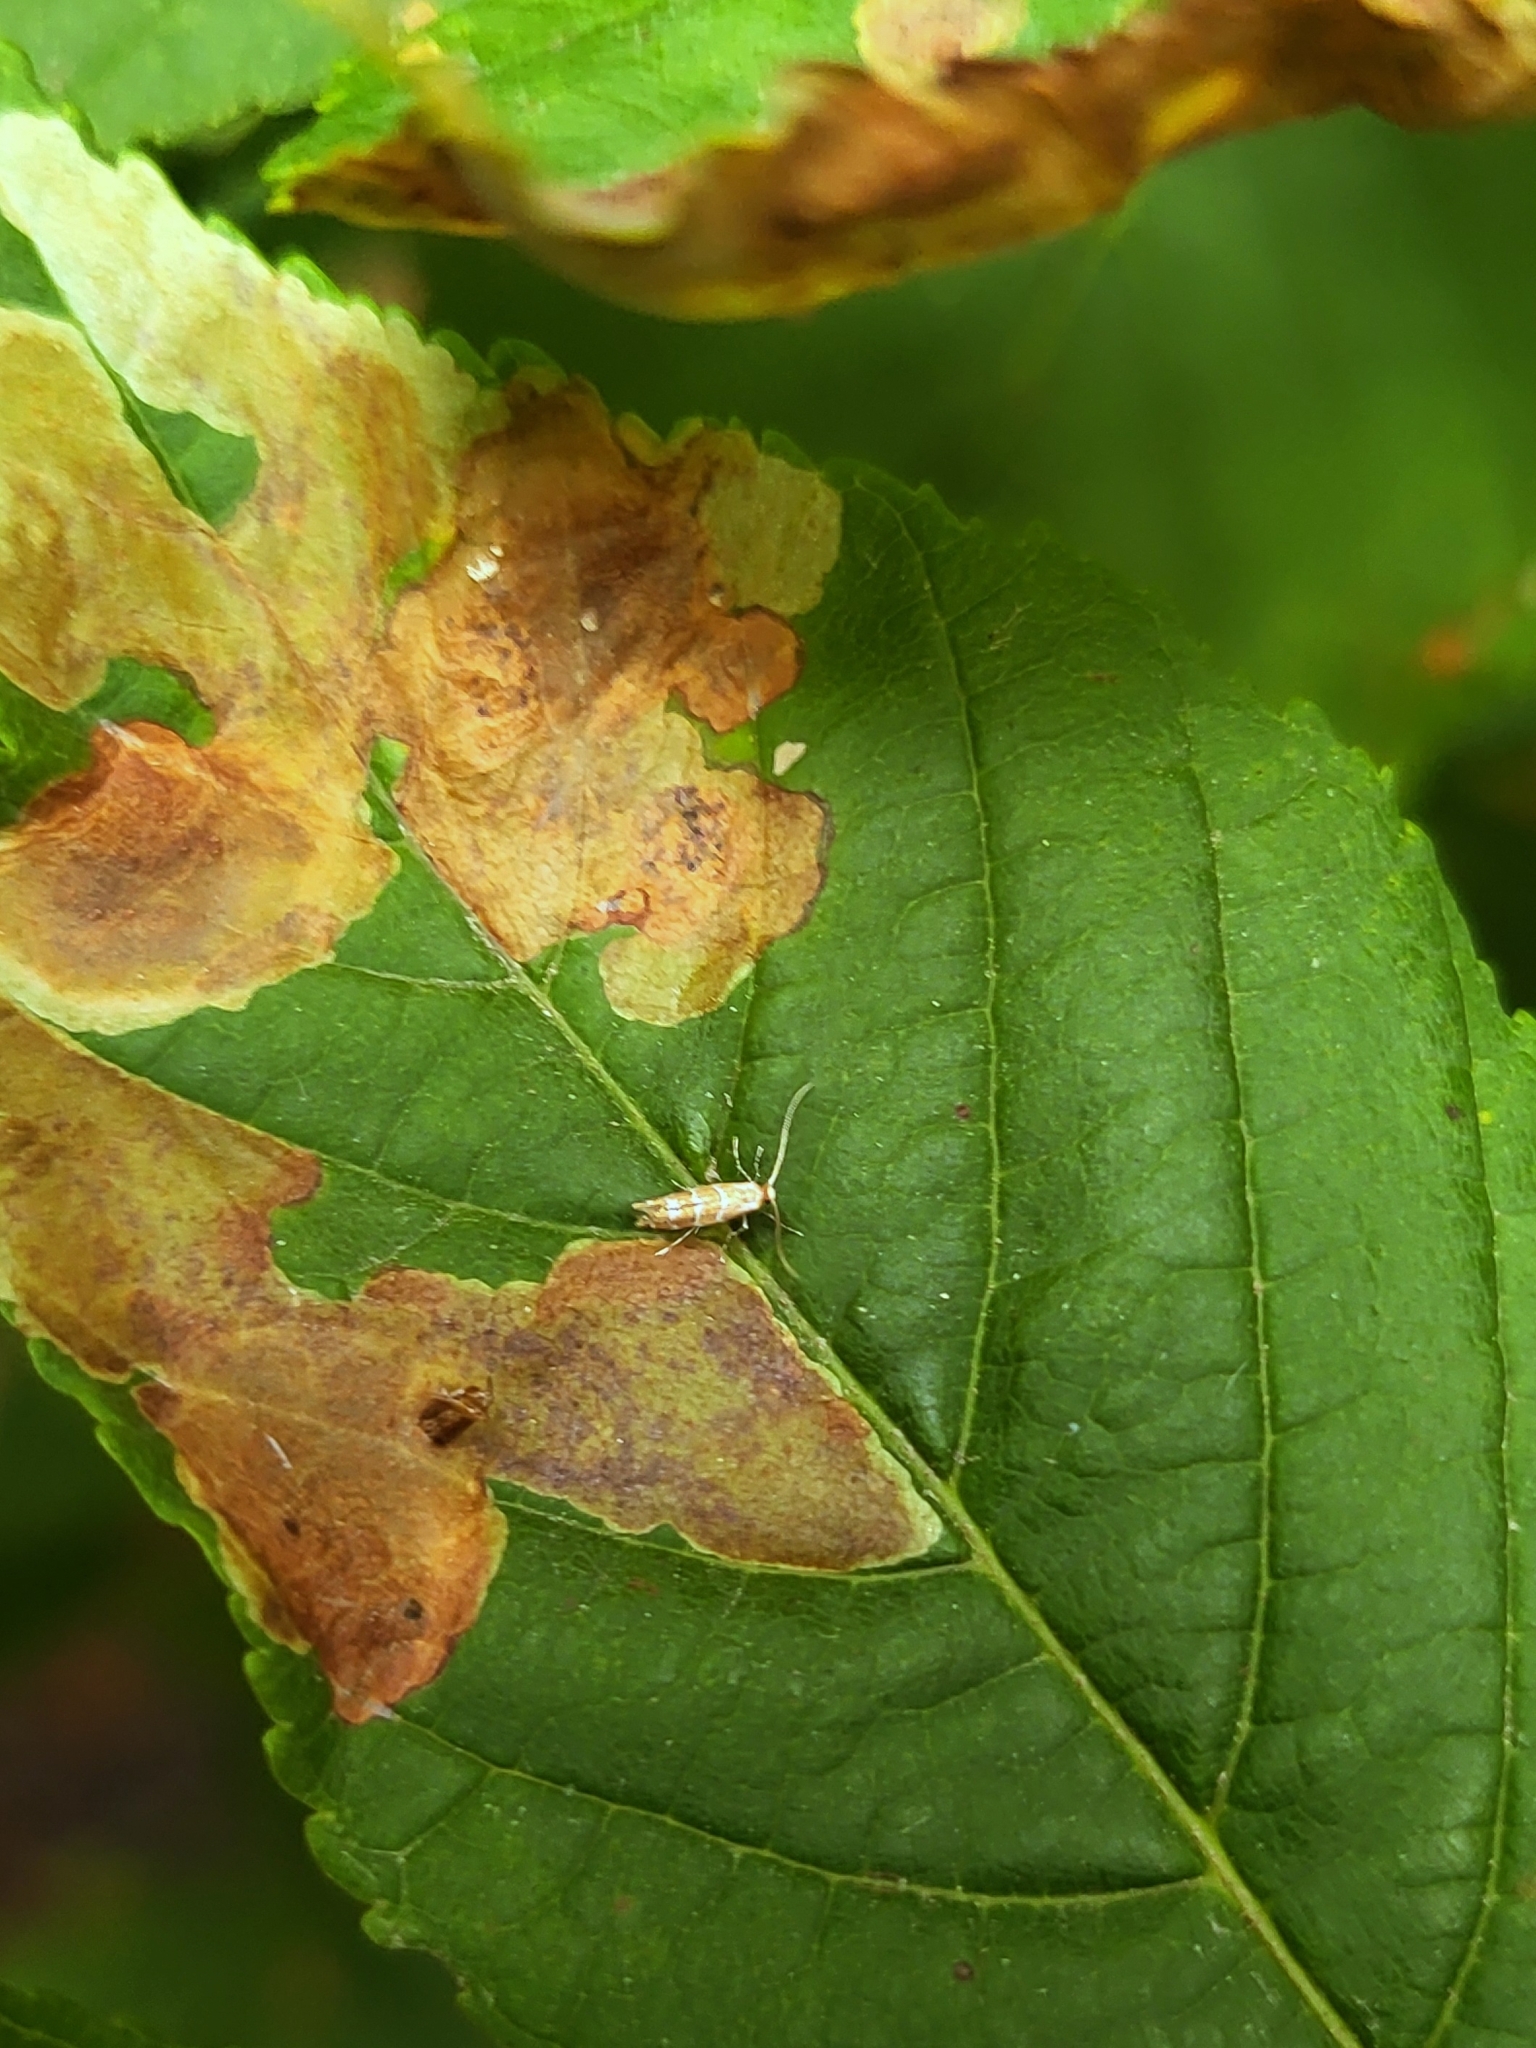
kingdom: Animalia
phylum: Arthropoda
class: Insecta
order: Lepidoptera
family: Gracillariidae
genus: Cameraria
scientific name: Cameraria ohridella
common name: Horse-chestnut leaf-miner
